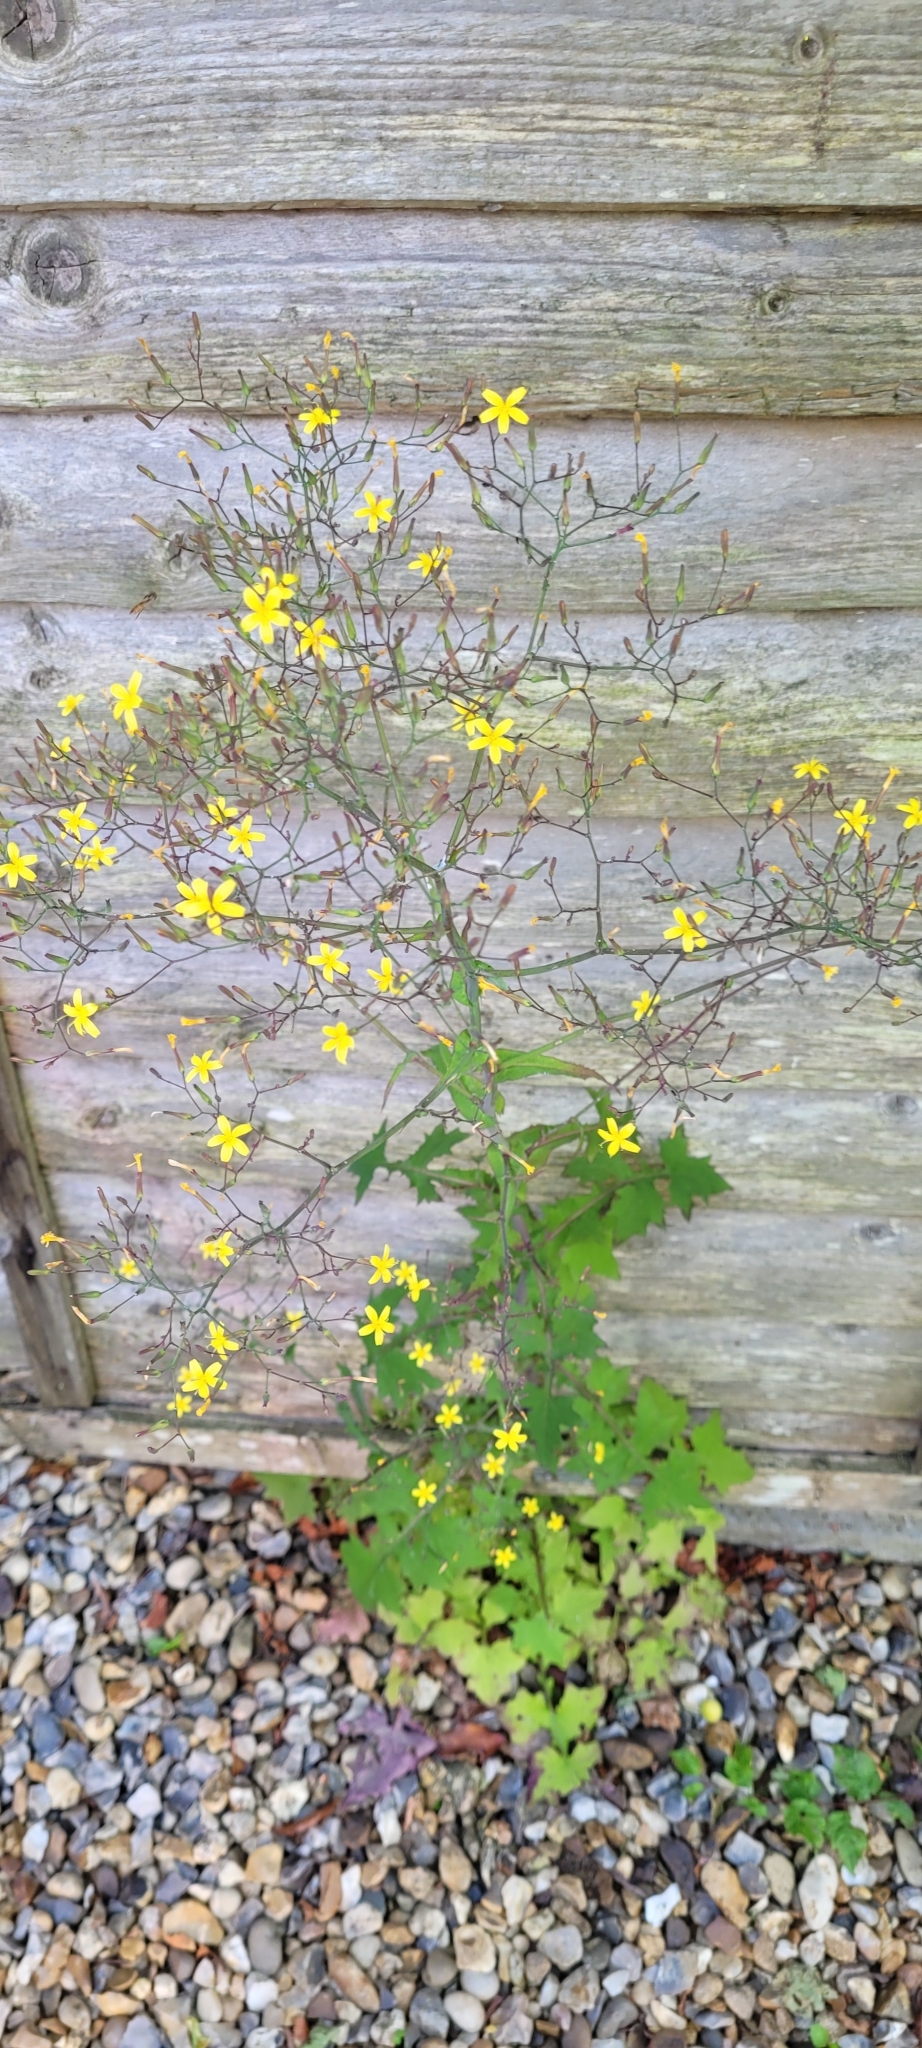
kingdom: Plantae
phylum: Tracheophyta
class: Magnoliopsida
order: Asterales
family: Asteraceae
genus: Mycelis
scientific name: Mycelis muralis
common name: Wall lettuce
